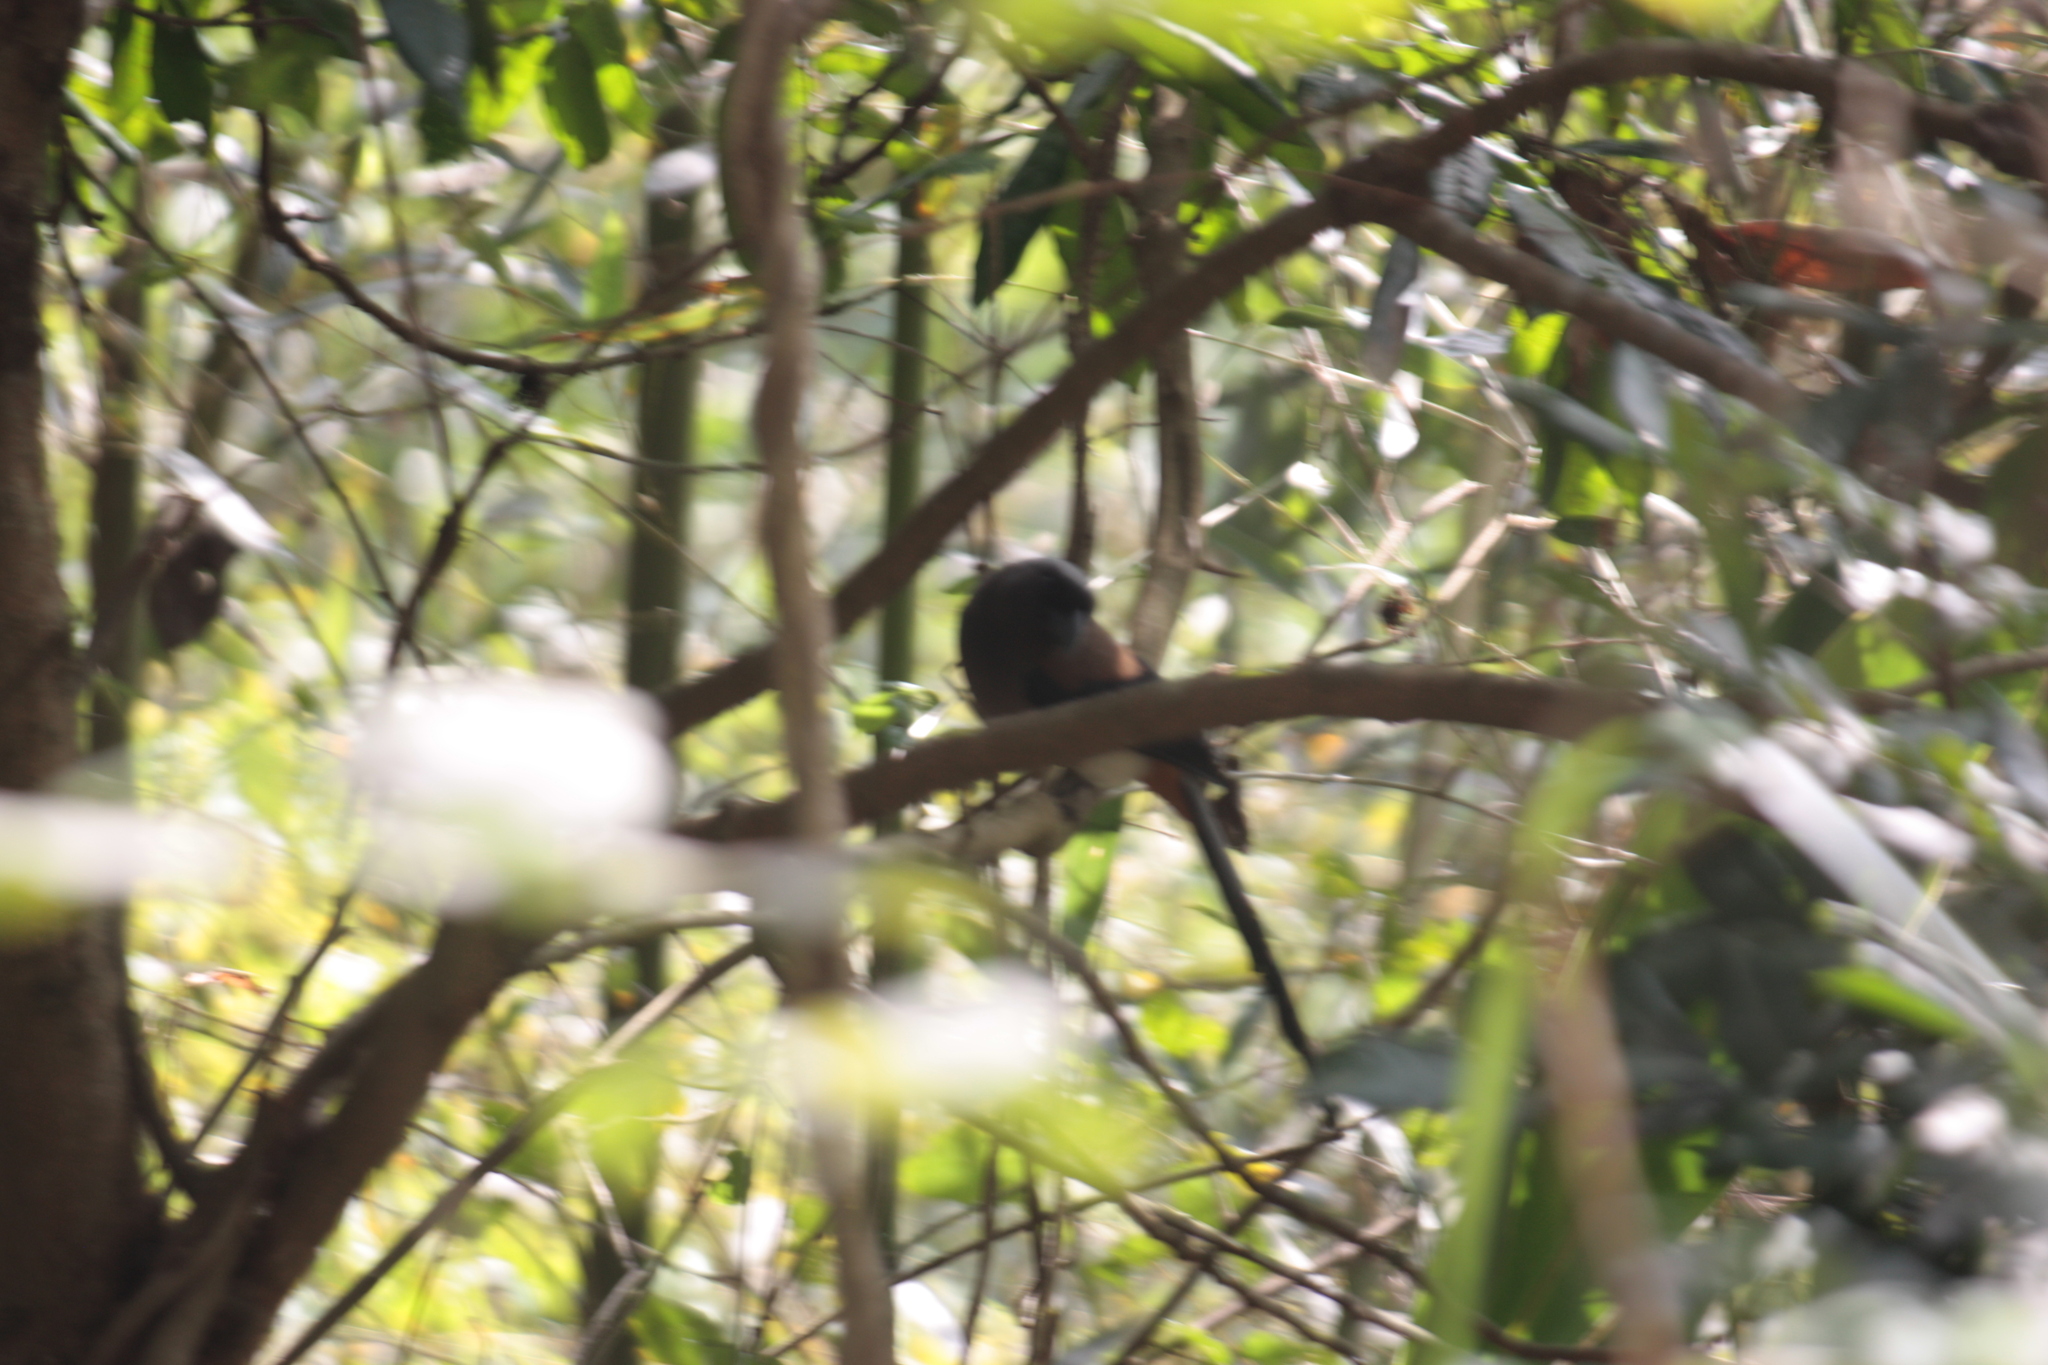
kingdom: Animalia
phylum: Chordata
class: Aves
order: Passeriformes
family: Corvidae
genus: Dendrocitta
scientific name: Dendrocitta formosae
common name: Grey treepie
